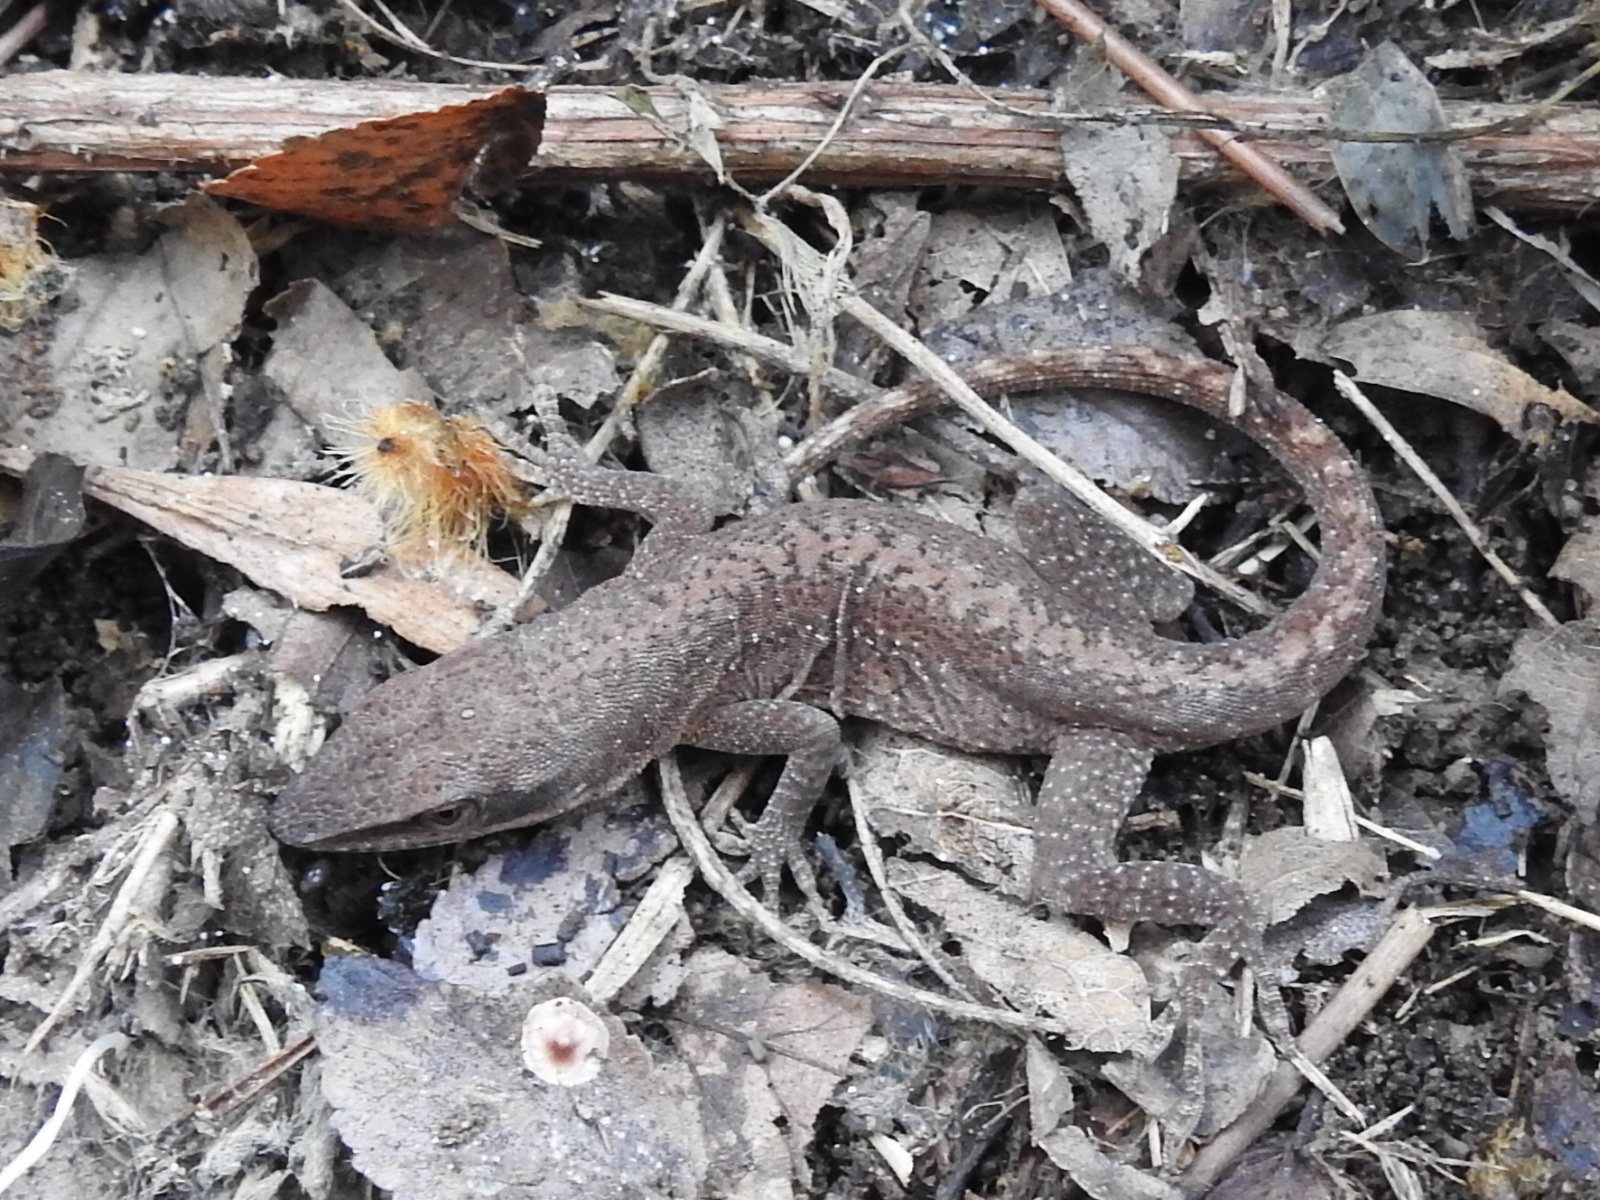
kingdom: Animalia
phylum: Chordata
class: Squamata
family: Dactyloidae
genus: Anolis
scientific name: Anolis carolinensis
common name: Green anole
